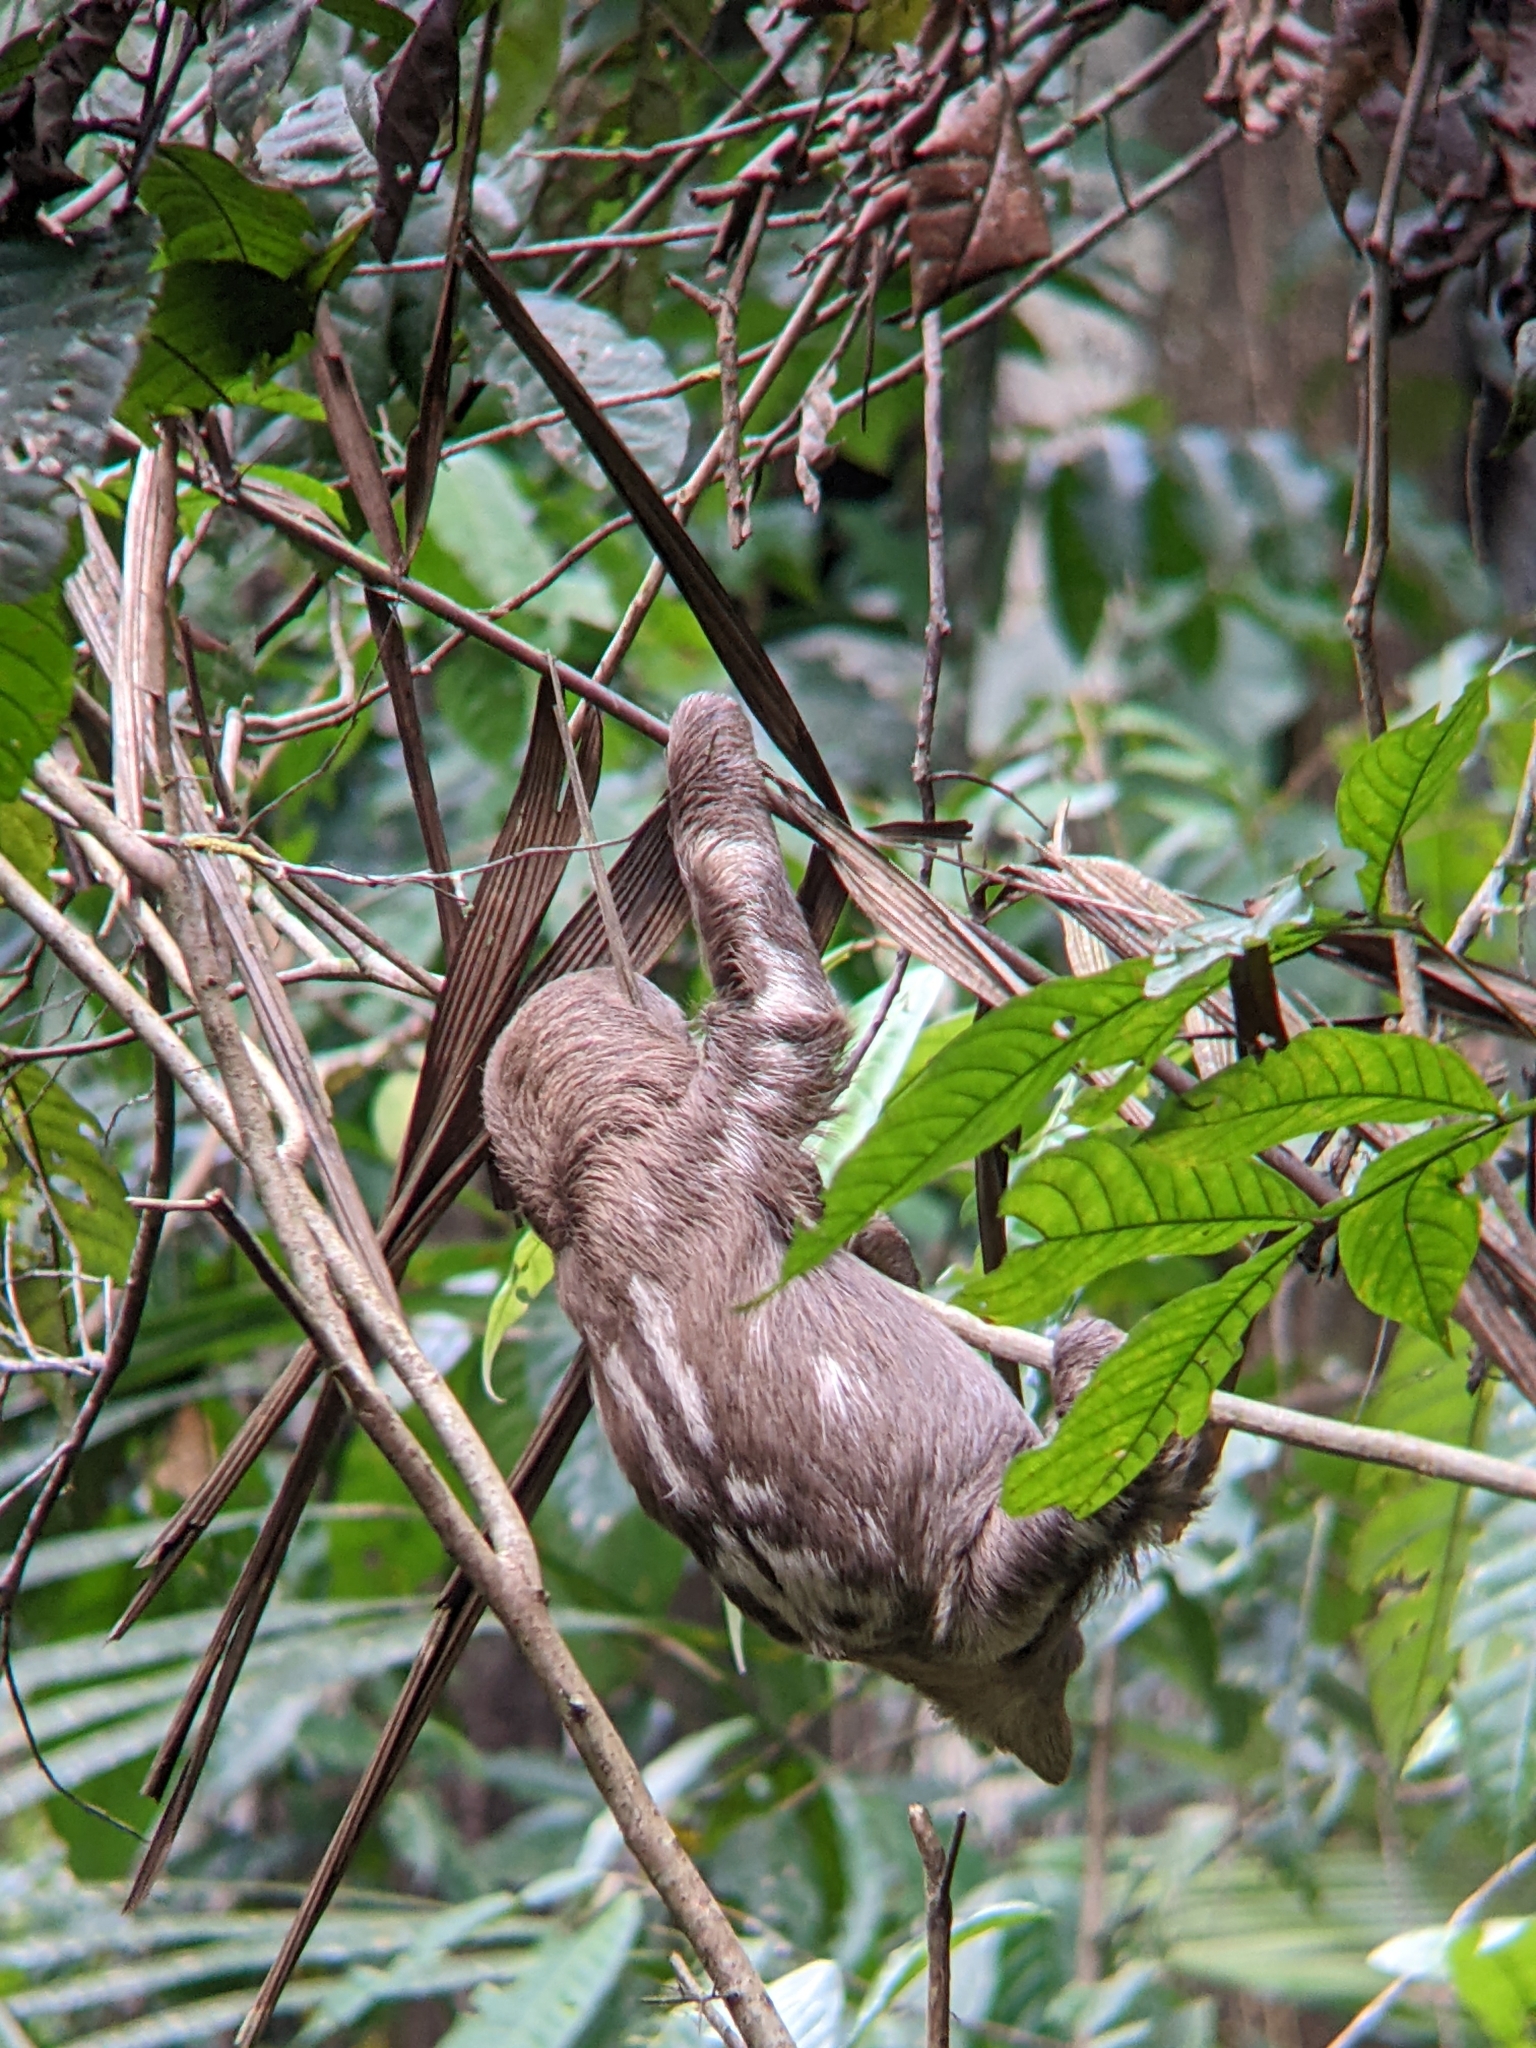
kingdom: Animalia
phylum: Chordata
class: Mammalia
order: Pilosa
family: Bradypodidae
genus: Bradypus
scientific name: Bradypus variegatus
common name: Brown-throated three-toed sloth
